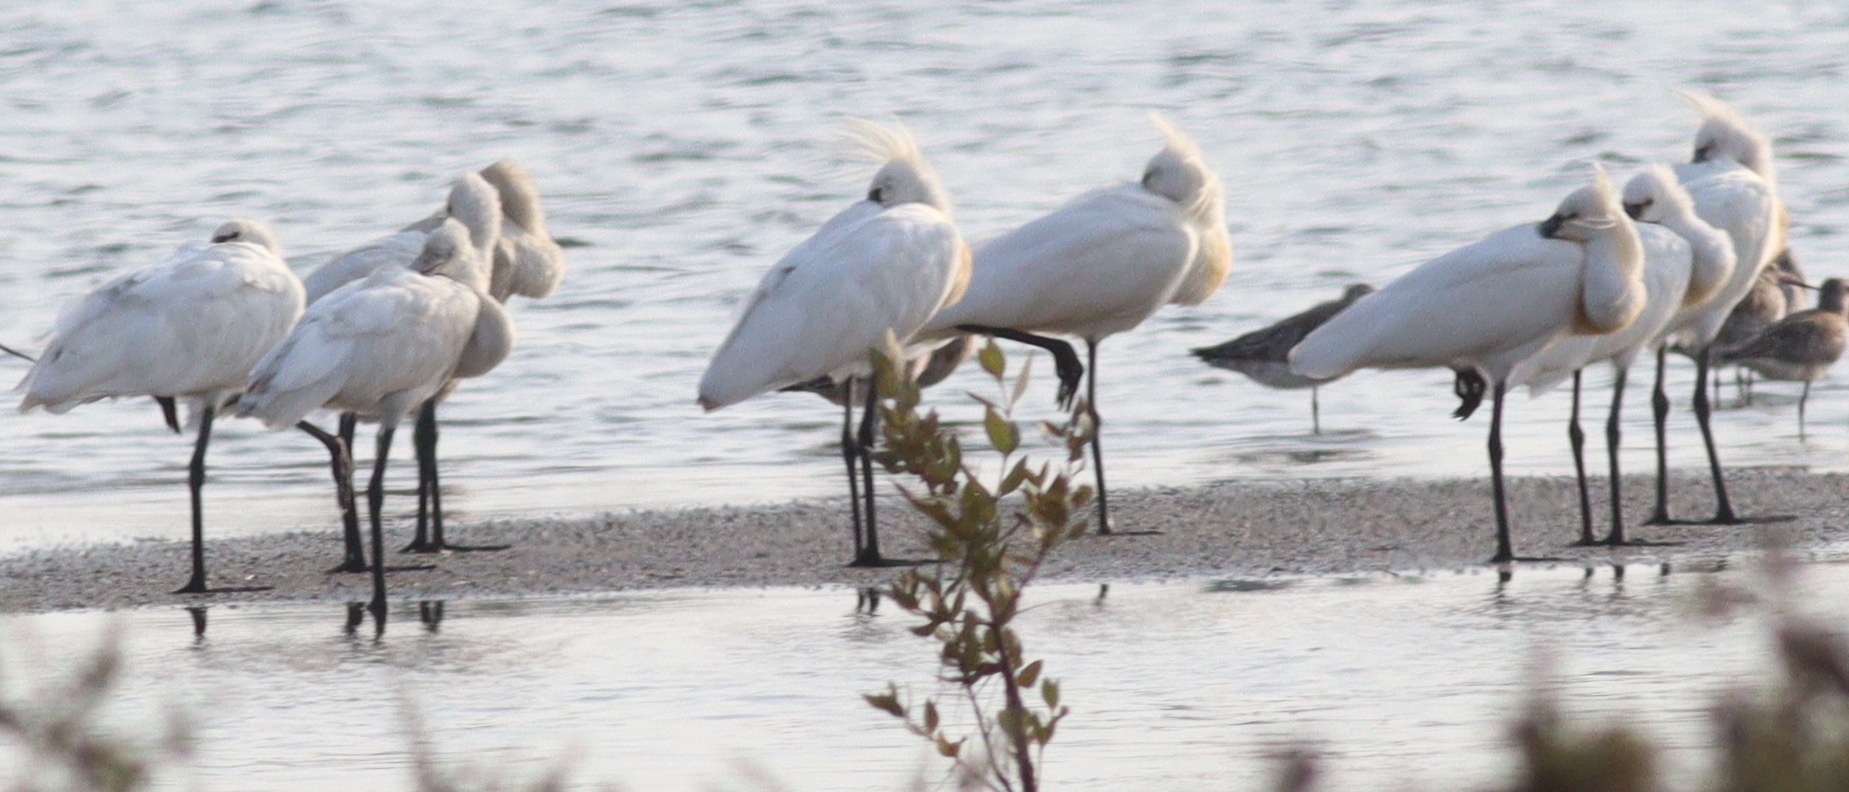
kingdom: Animalia
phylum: Chordata
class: Aves
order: Pelecaniformes
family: Threskiornithidae
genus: Platalea
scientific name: Platalea leucorodia
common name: Eurasian spoonbill
